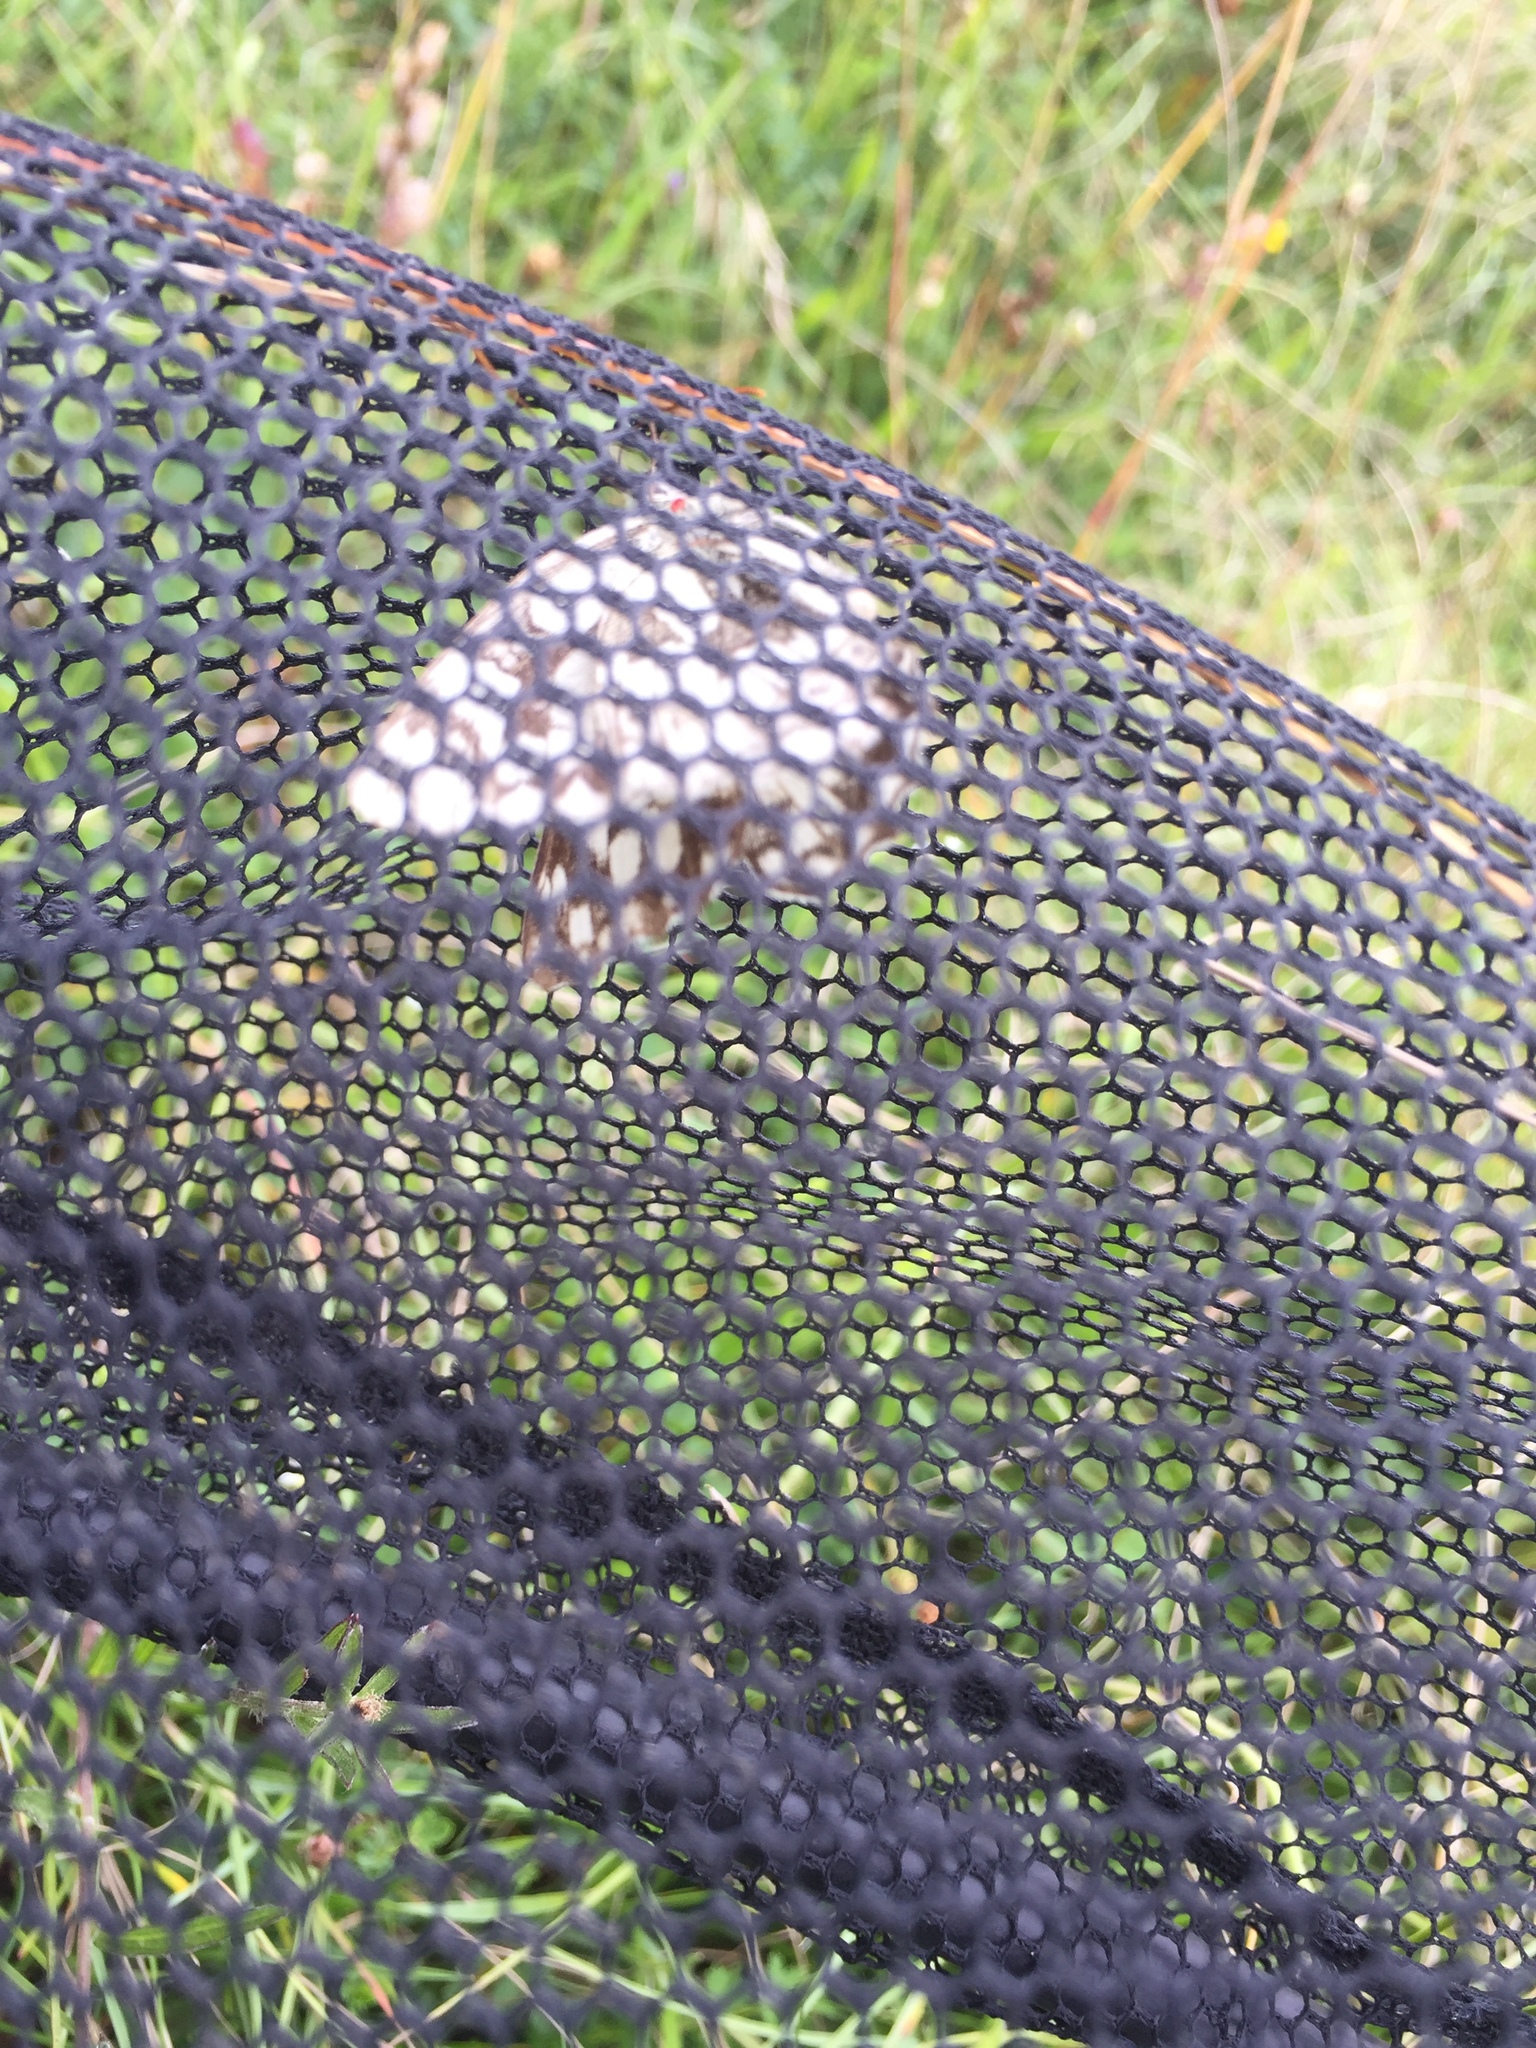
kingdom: Animalia
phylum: Arthropoda
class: Insecta
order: Lepidoptera
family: Nymphalidae
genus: Melanargia
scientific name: Melanargia galathea
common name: Marbled white
